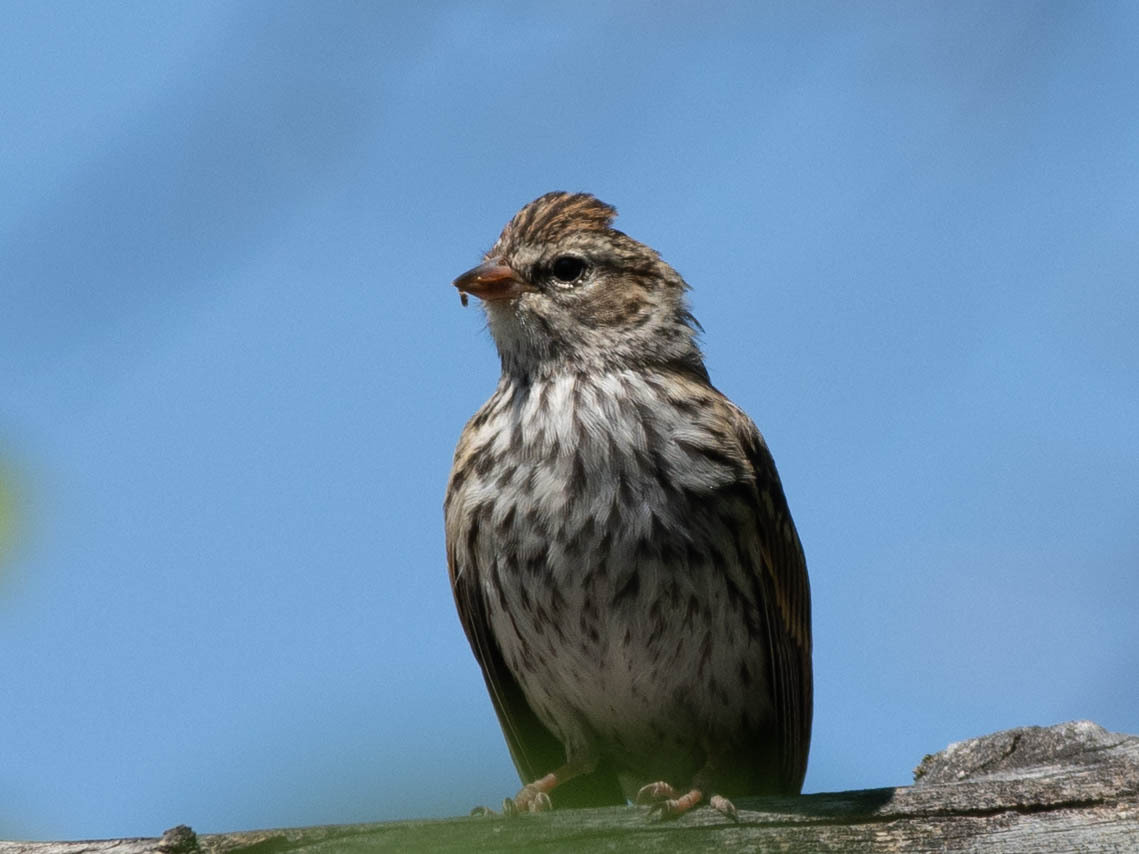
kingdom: Animalia
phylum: Chordata
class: Aves
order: Passeriformes
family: Passerellidae
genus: Spizella
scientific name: Spizella passerina
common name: Chipping sparrow
